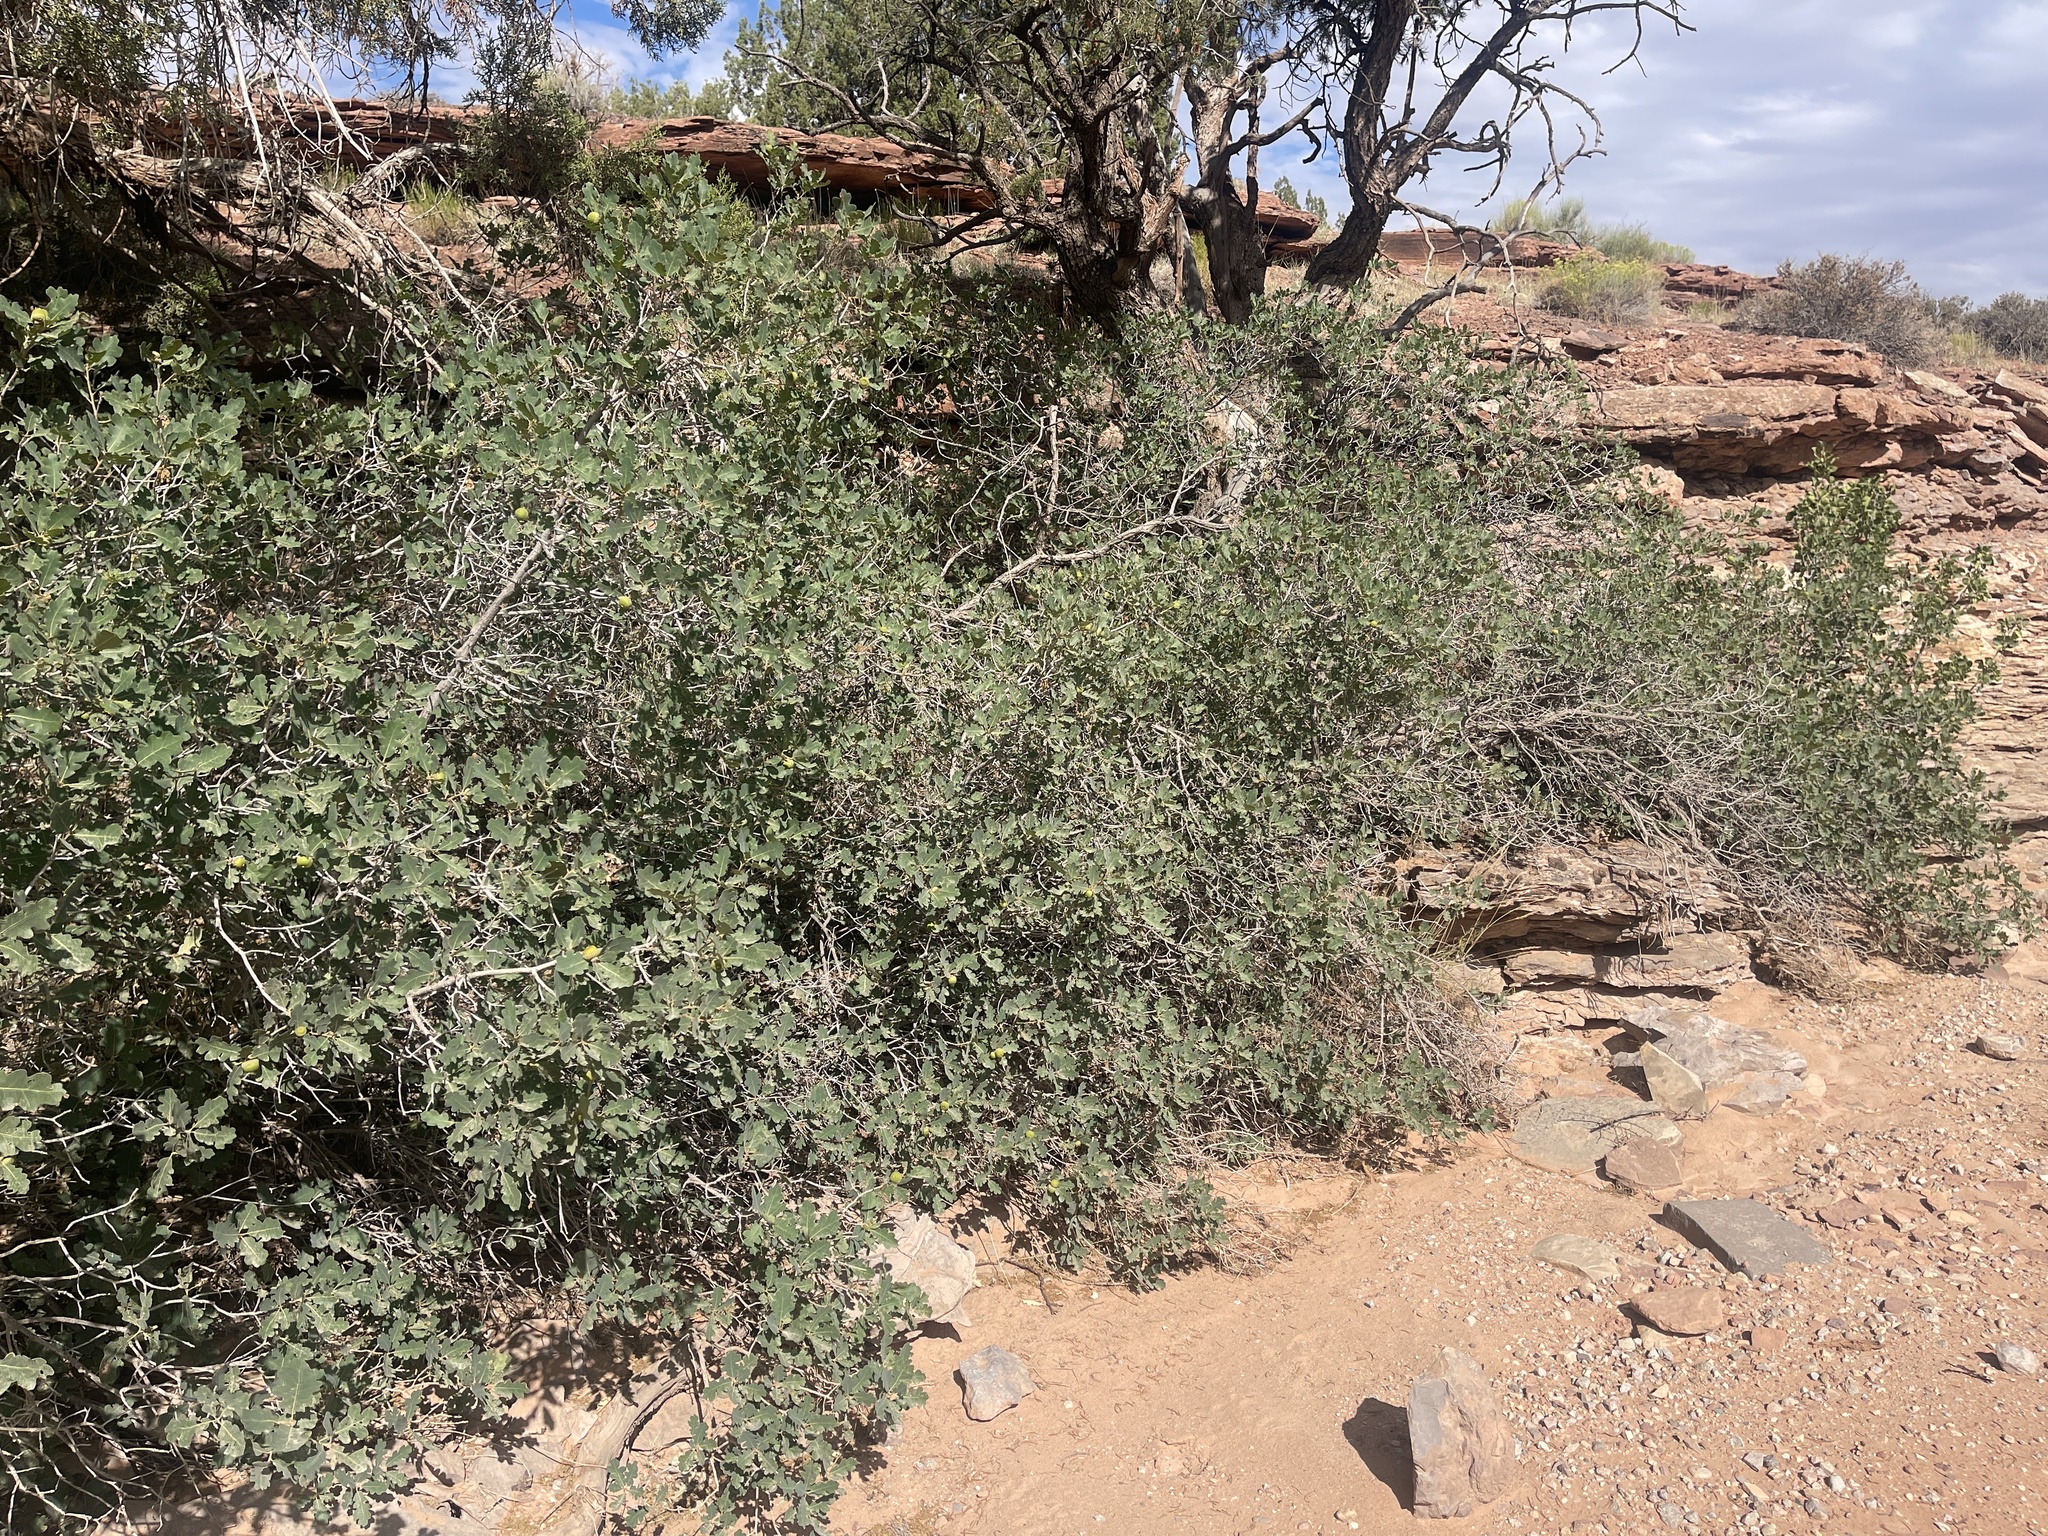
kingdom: Plantae
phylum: Tracheophyta
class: Magnoliopsida
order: Fagales
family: Fagaceae
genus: Quercus
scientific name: Quercus welshii
